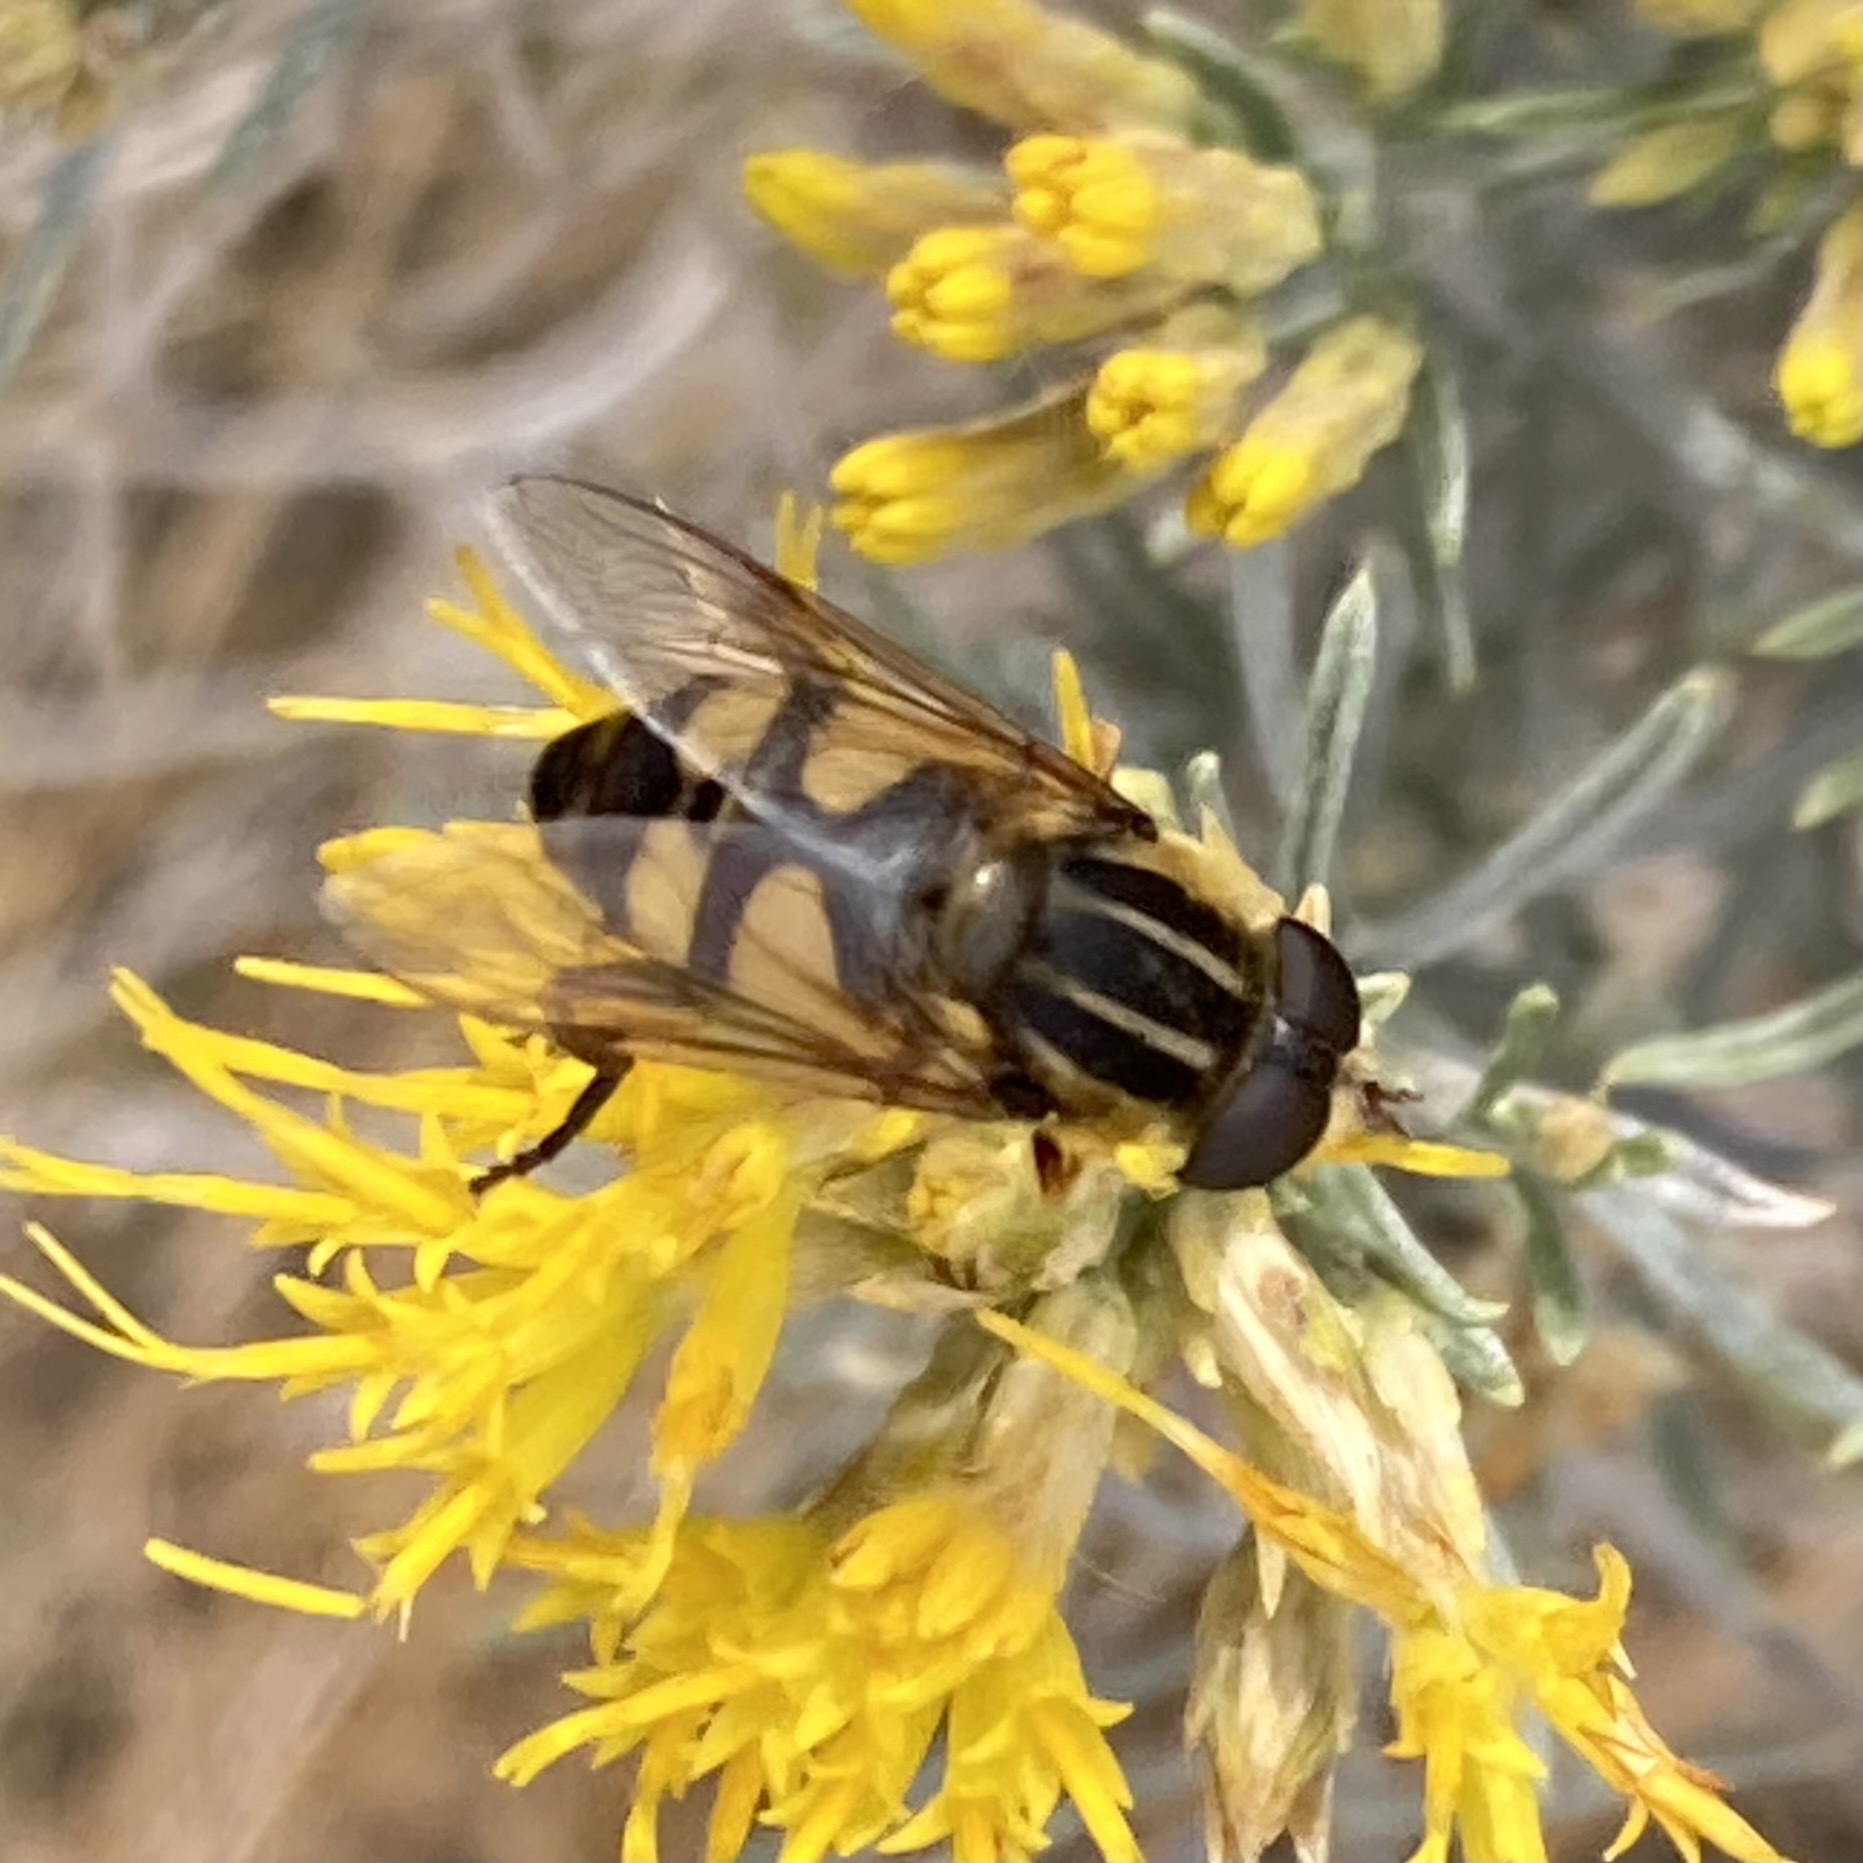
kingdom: Animalia
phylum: Arthropoda
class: Insecta
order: Diptera
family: Syrphidae
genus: Helophilus
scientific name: Helophilus fasciatus
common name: Narrow-headed marsh fly
